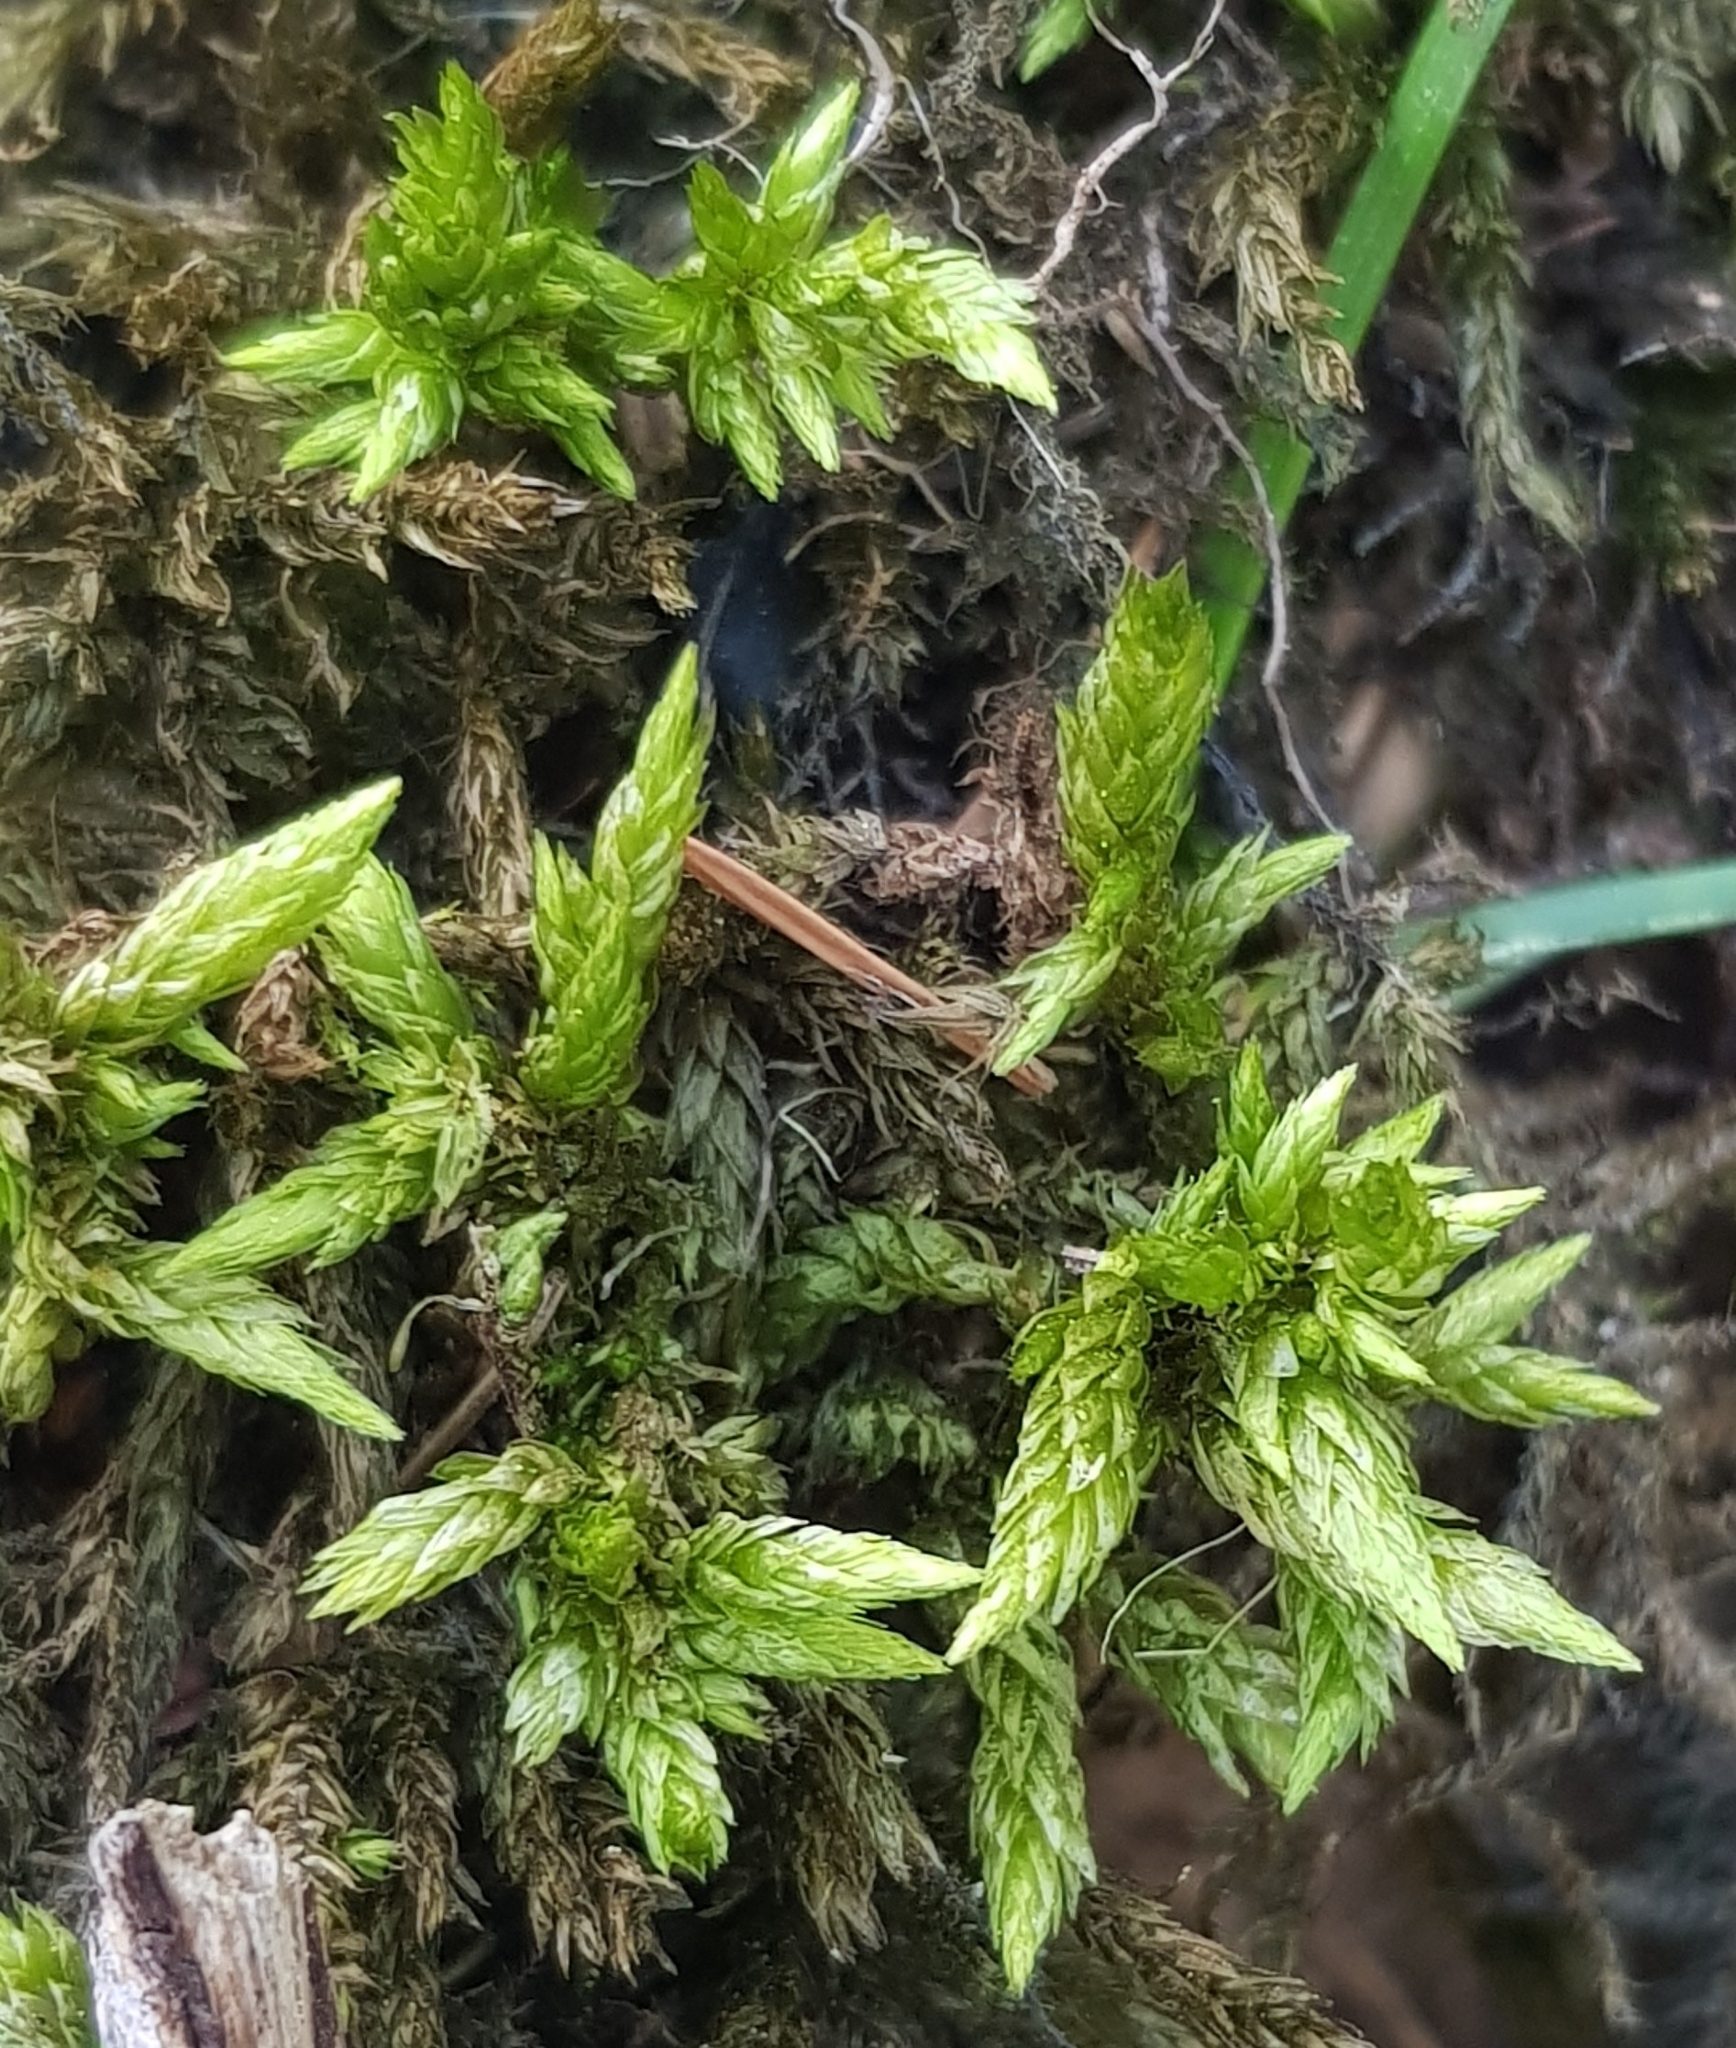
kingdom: Plantae
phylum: Bryophyta
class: Bryopsida
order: Hypnales
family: Climaciaceae
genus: Climacium
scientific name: Climacium dendroides
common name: Northern tree moss
